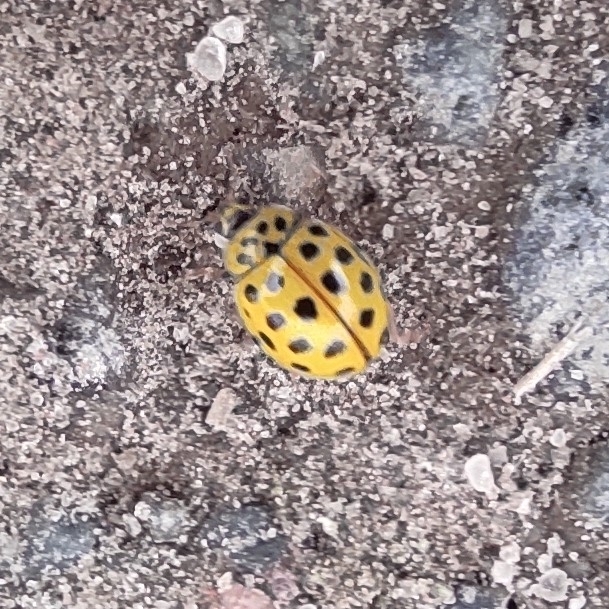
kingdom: Animalia
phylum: Arthropoda
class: Insecta
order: Coleoptera
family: Coccinellidae
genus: Psyllobora
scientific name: Psyllobora vigintiduopunctata
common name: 22-spot ladybird
